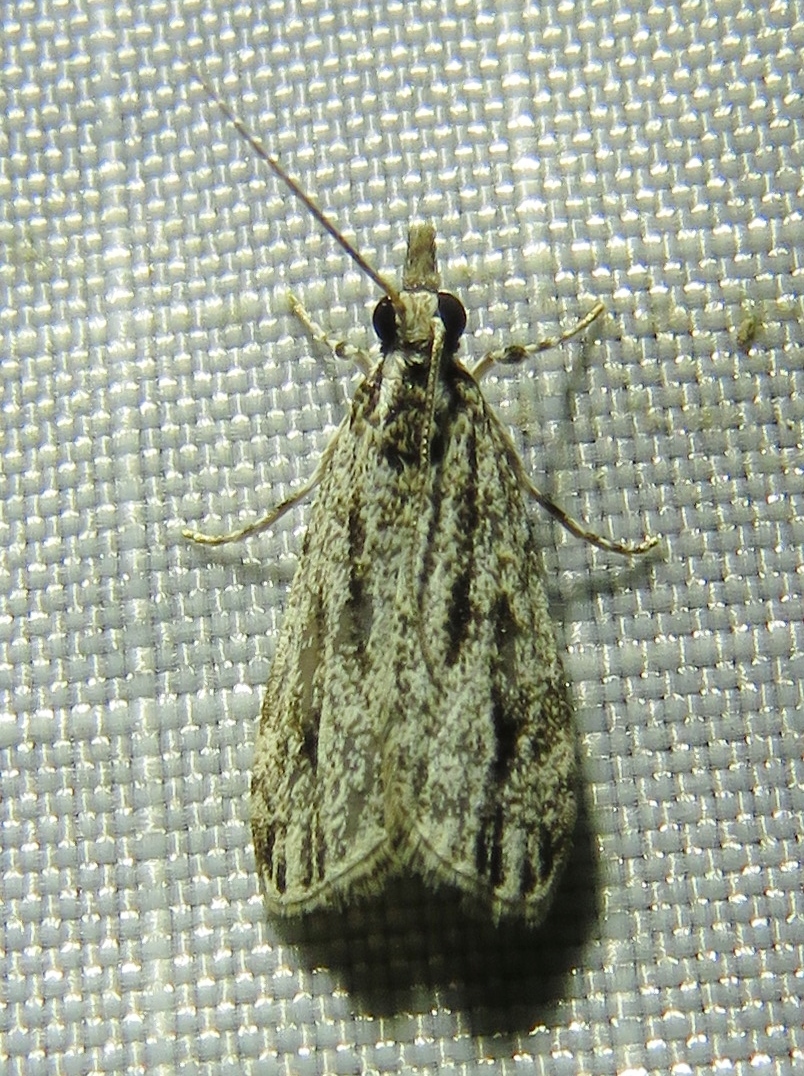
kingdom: Animalia
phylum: Arthropoda
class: Insecta
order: Lepidoptera
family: Crambidae
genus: Eudonia
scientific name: Eudonia strigalis
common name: Striped eudonia moth
